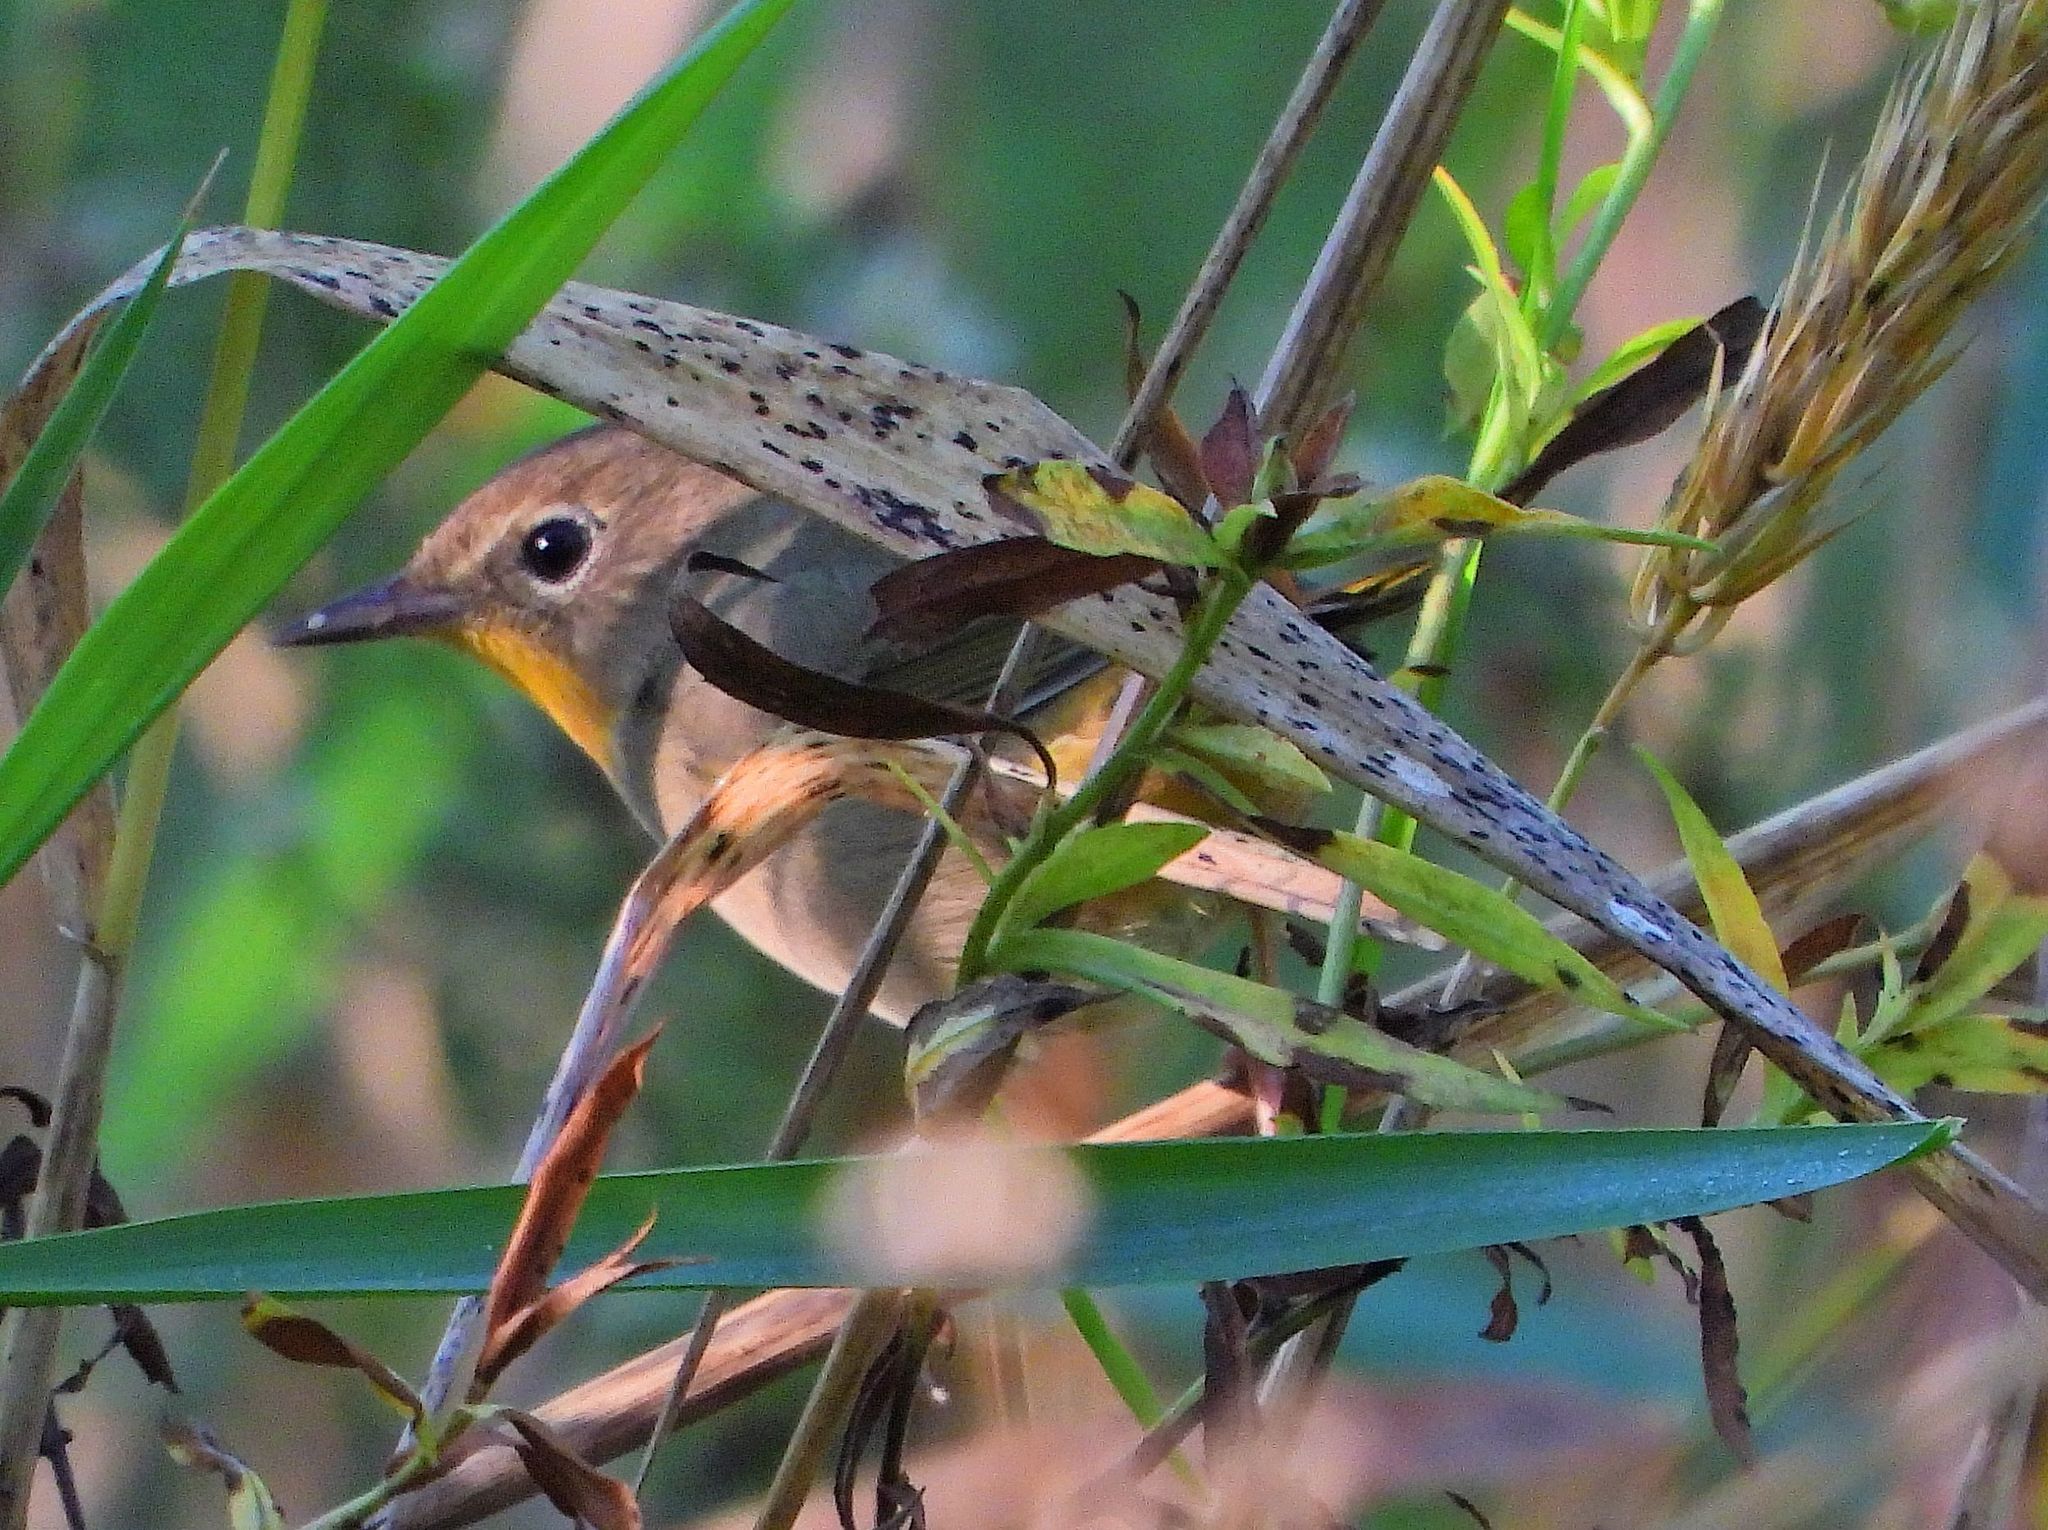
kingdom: Animalia
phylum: Chordata
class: Aves
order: Passeriformes
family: Parulidae
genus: Geothlypis
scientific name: Geothlypis trichas
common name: Common yellowthroat
